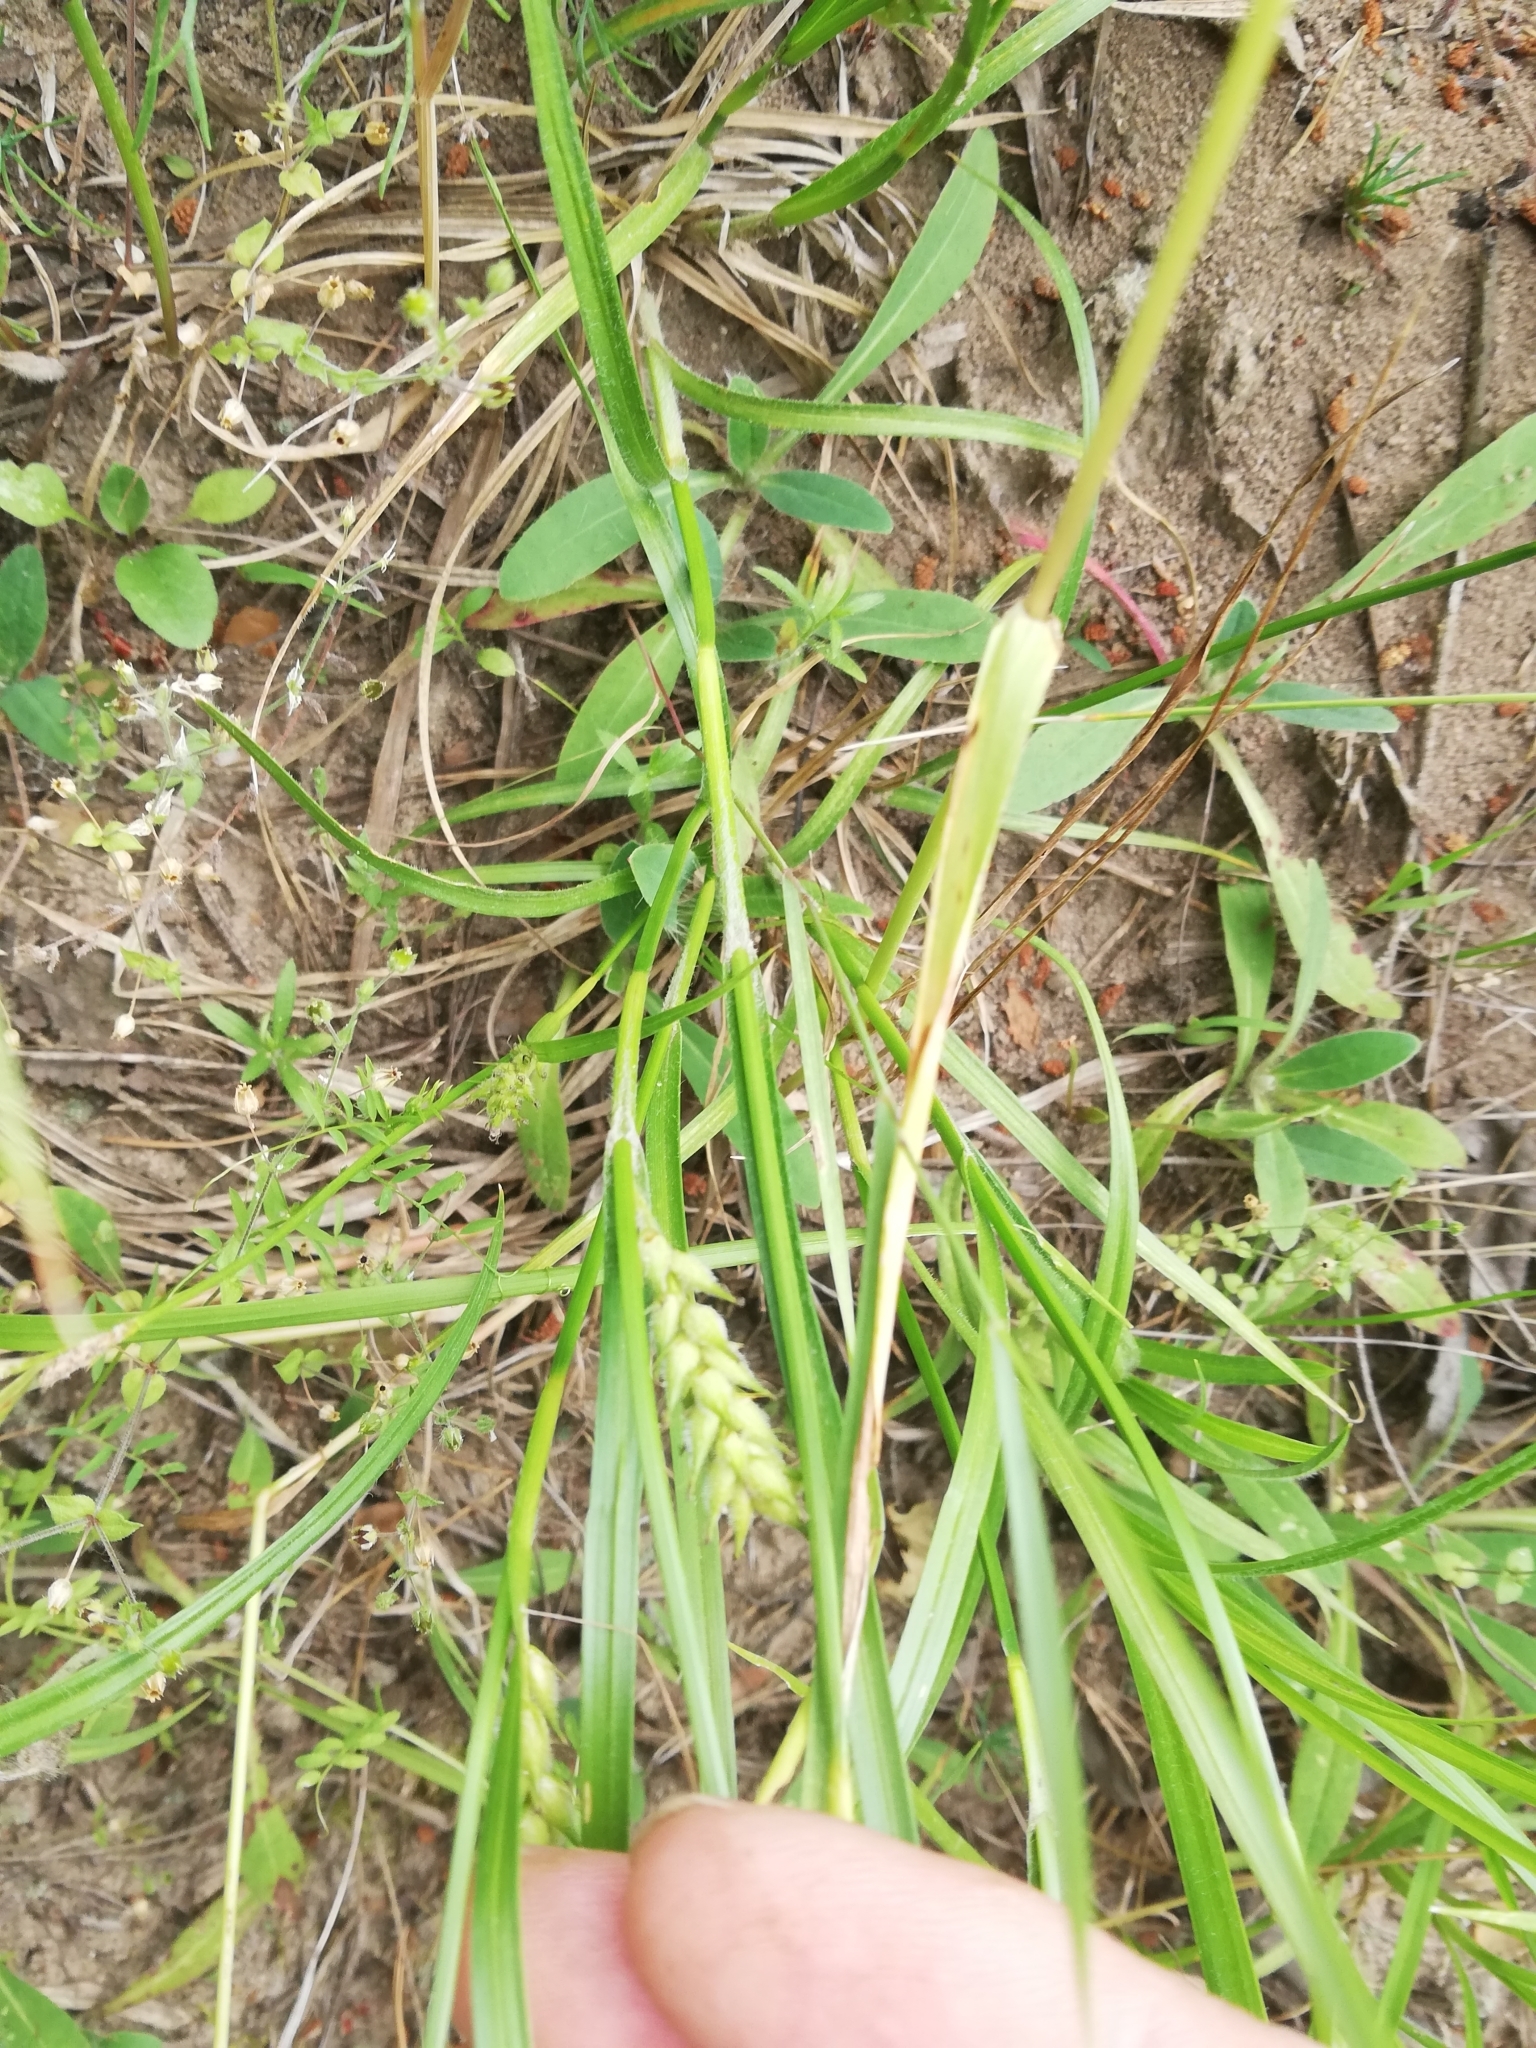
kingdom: Plantae
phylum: Tracheophyta
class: Liliopsida
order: Poales
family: Cyperaceae
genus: Carex
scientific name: Carex hirta
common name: Hairy sedge
